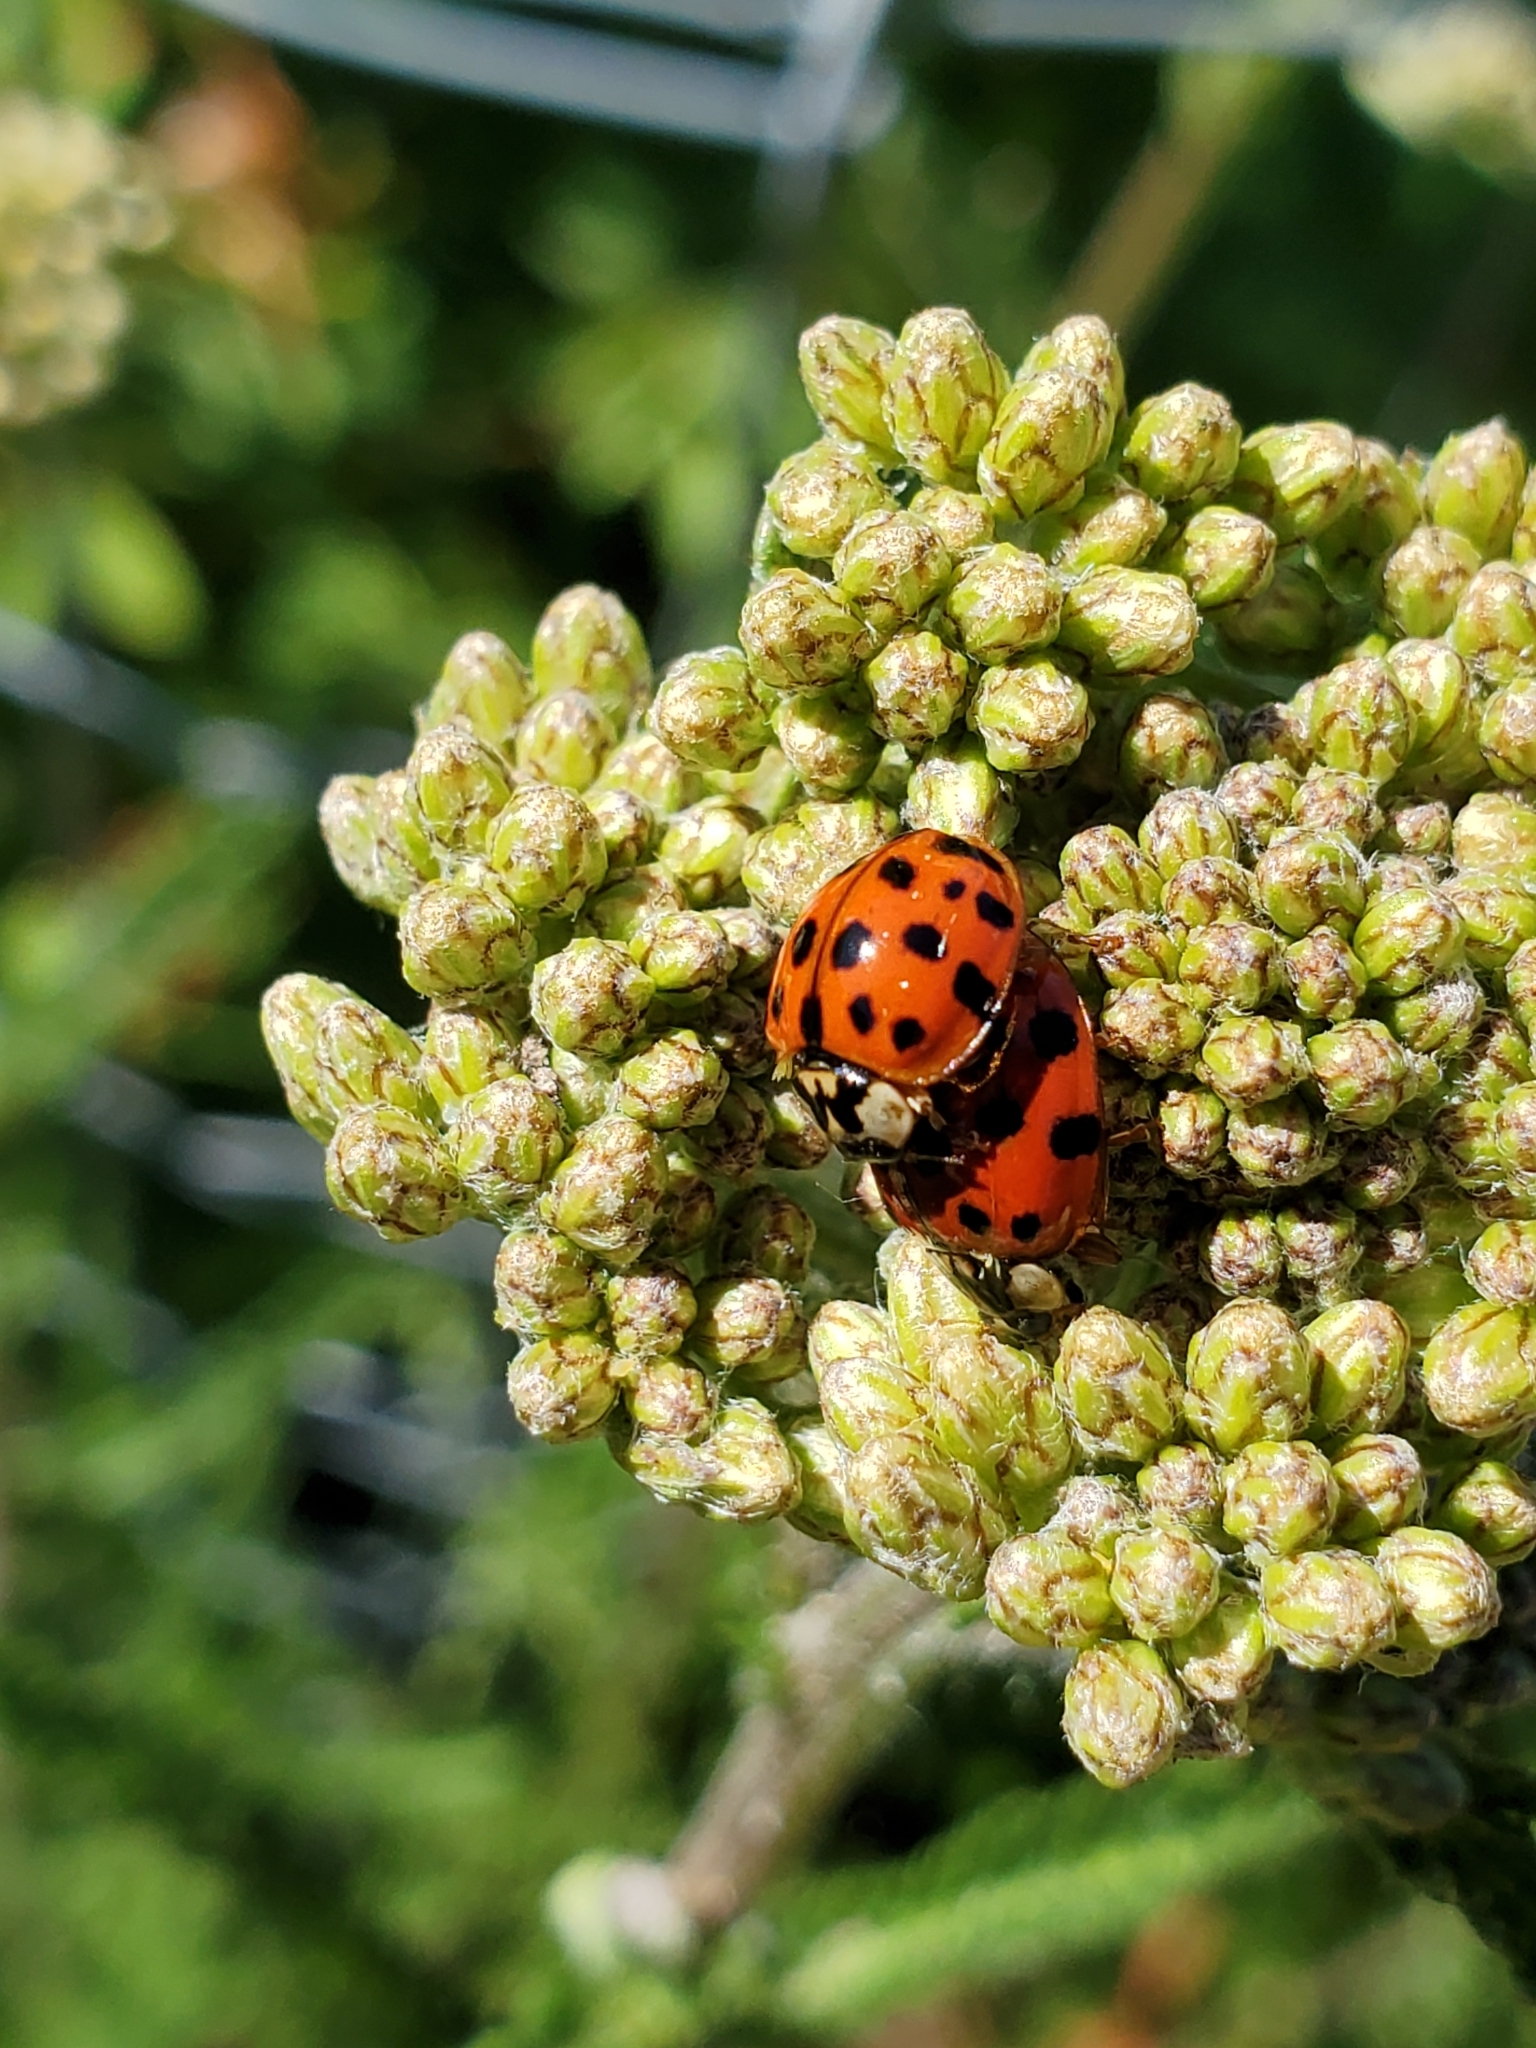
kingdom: Animalia
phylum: Arthropoda
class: Insecta
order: Coleoptera
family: Coccinellidae
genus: Harmonia
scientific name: Harmonia axyridis
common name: Harlequin ladybird
